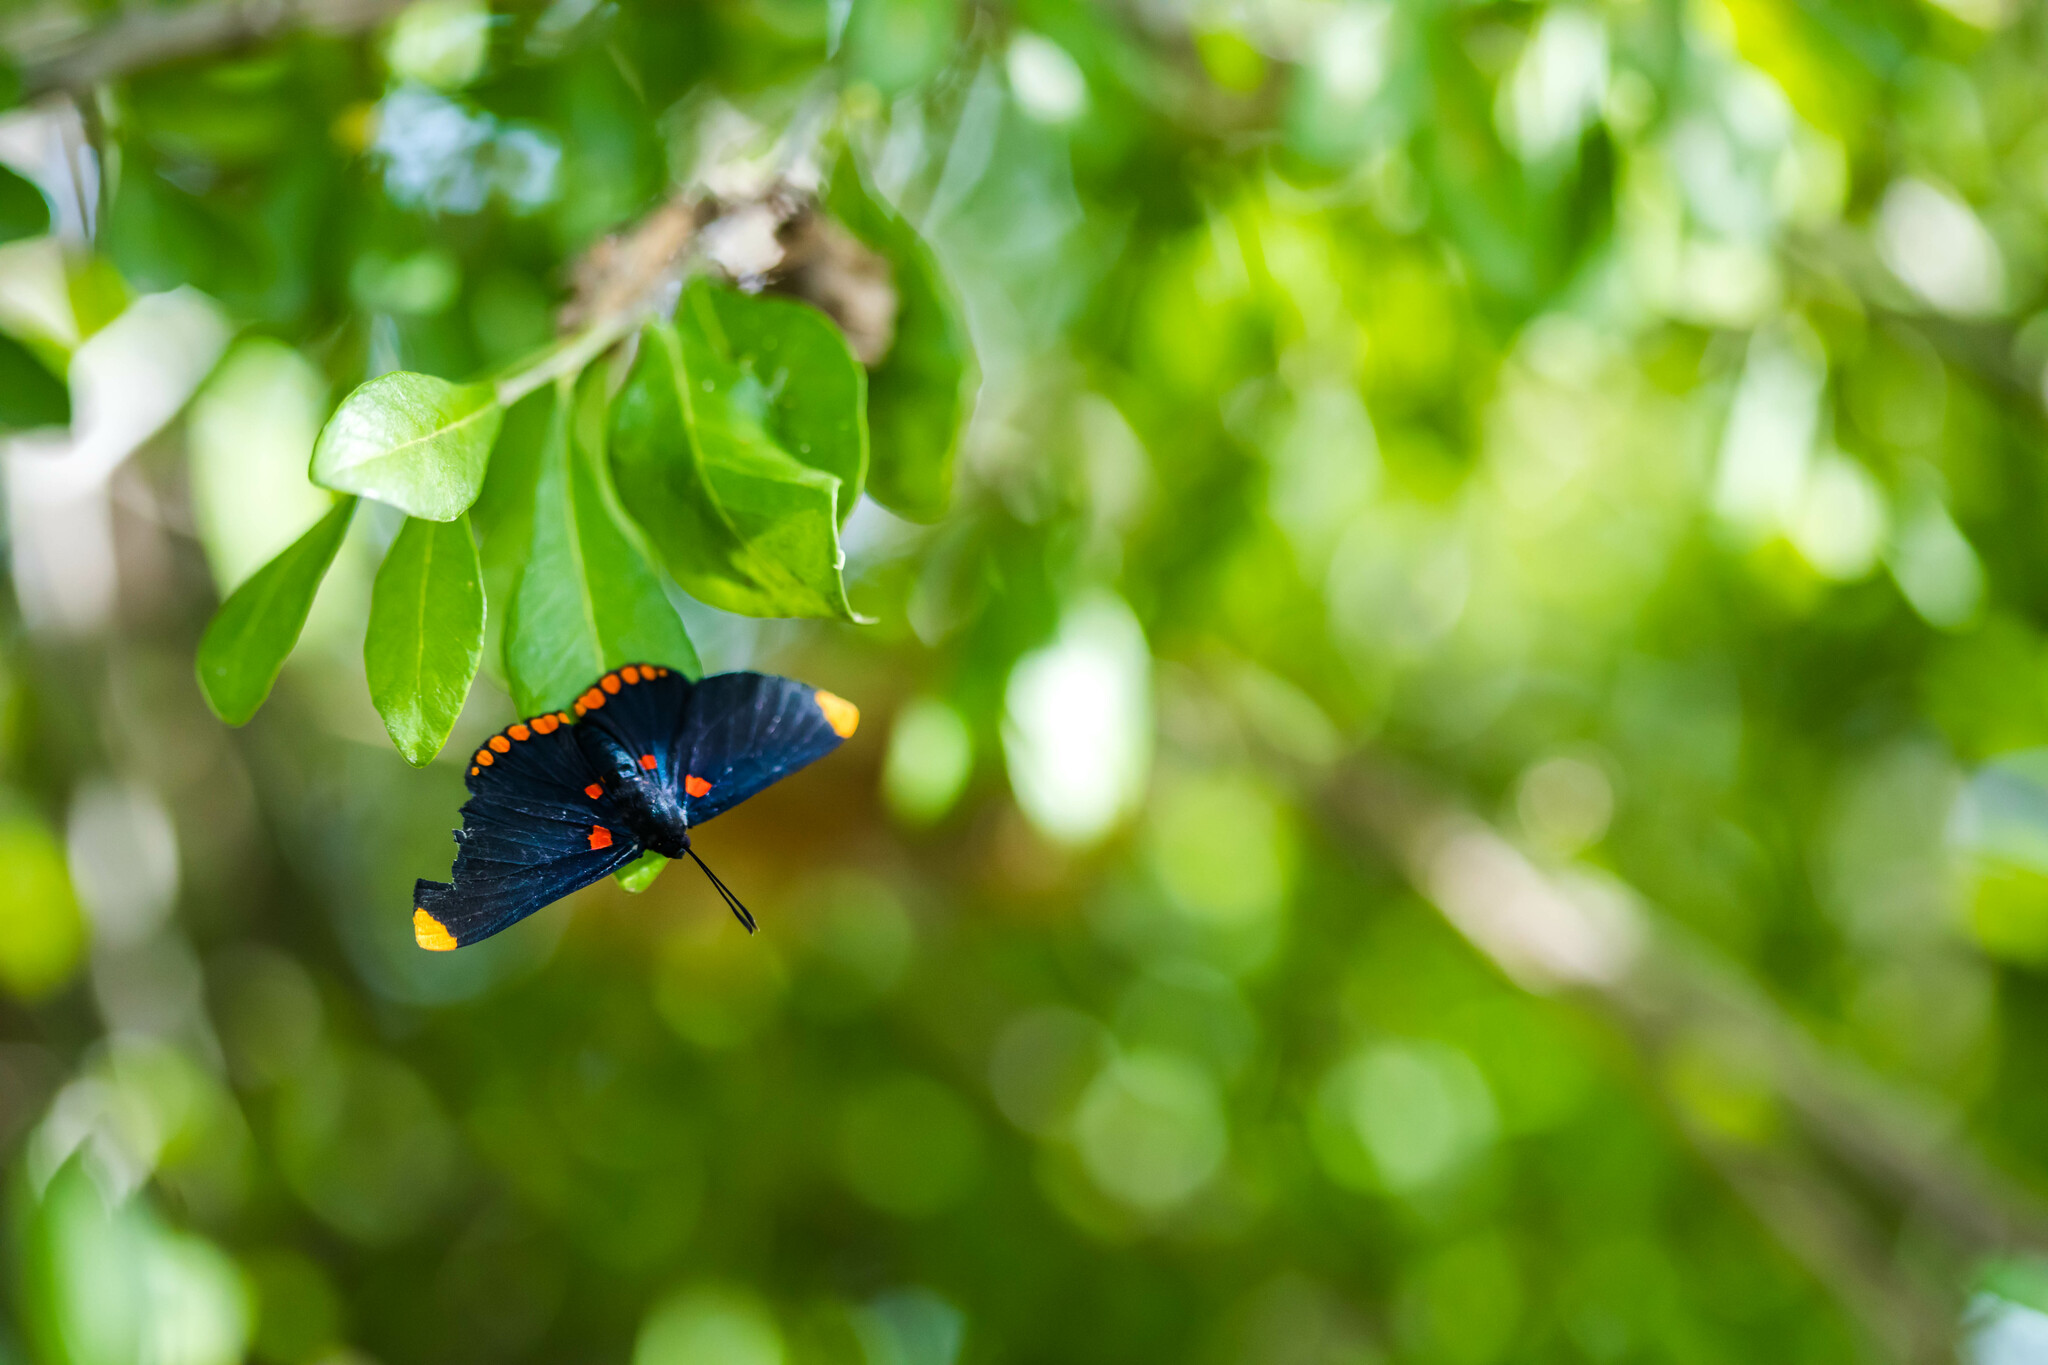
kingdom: Animalia
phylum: Arthropoda
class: Insecta
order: Lepidoptera
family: Lycaenidae
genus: Melanis
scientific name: Melanis pixe
